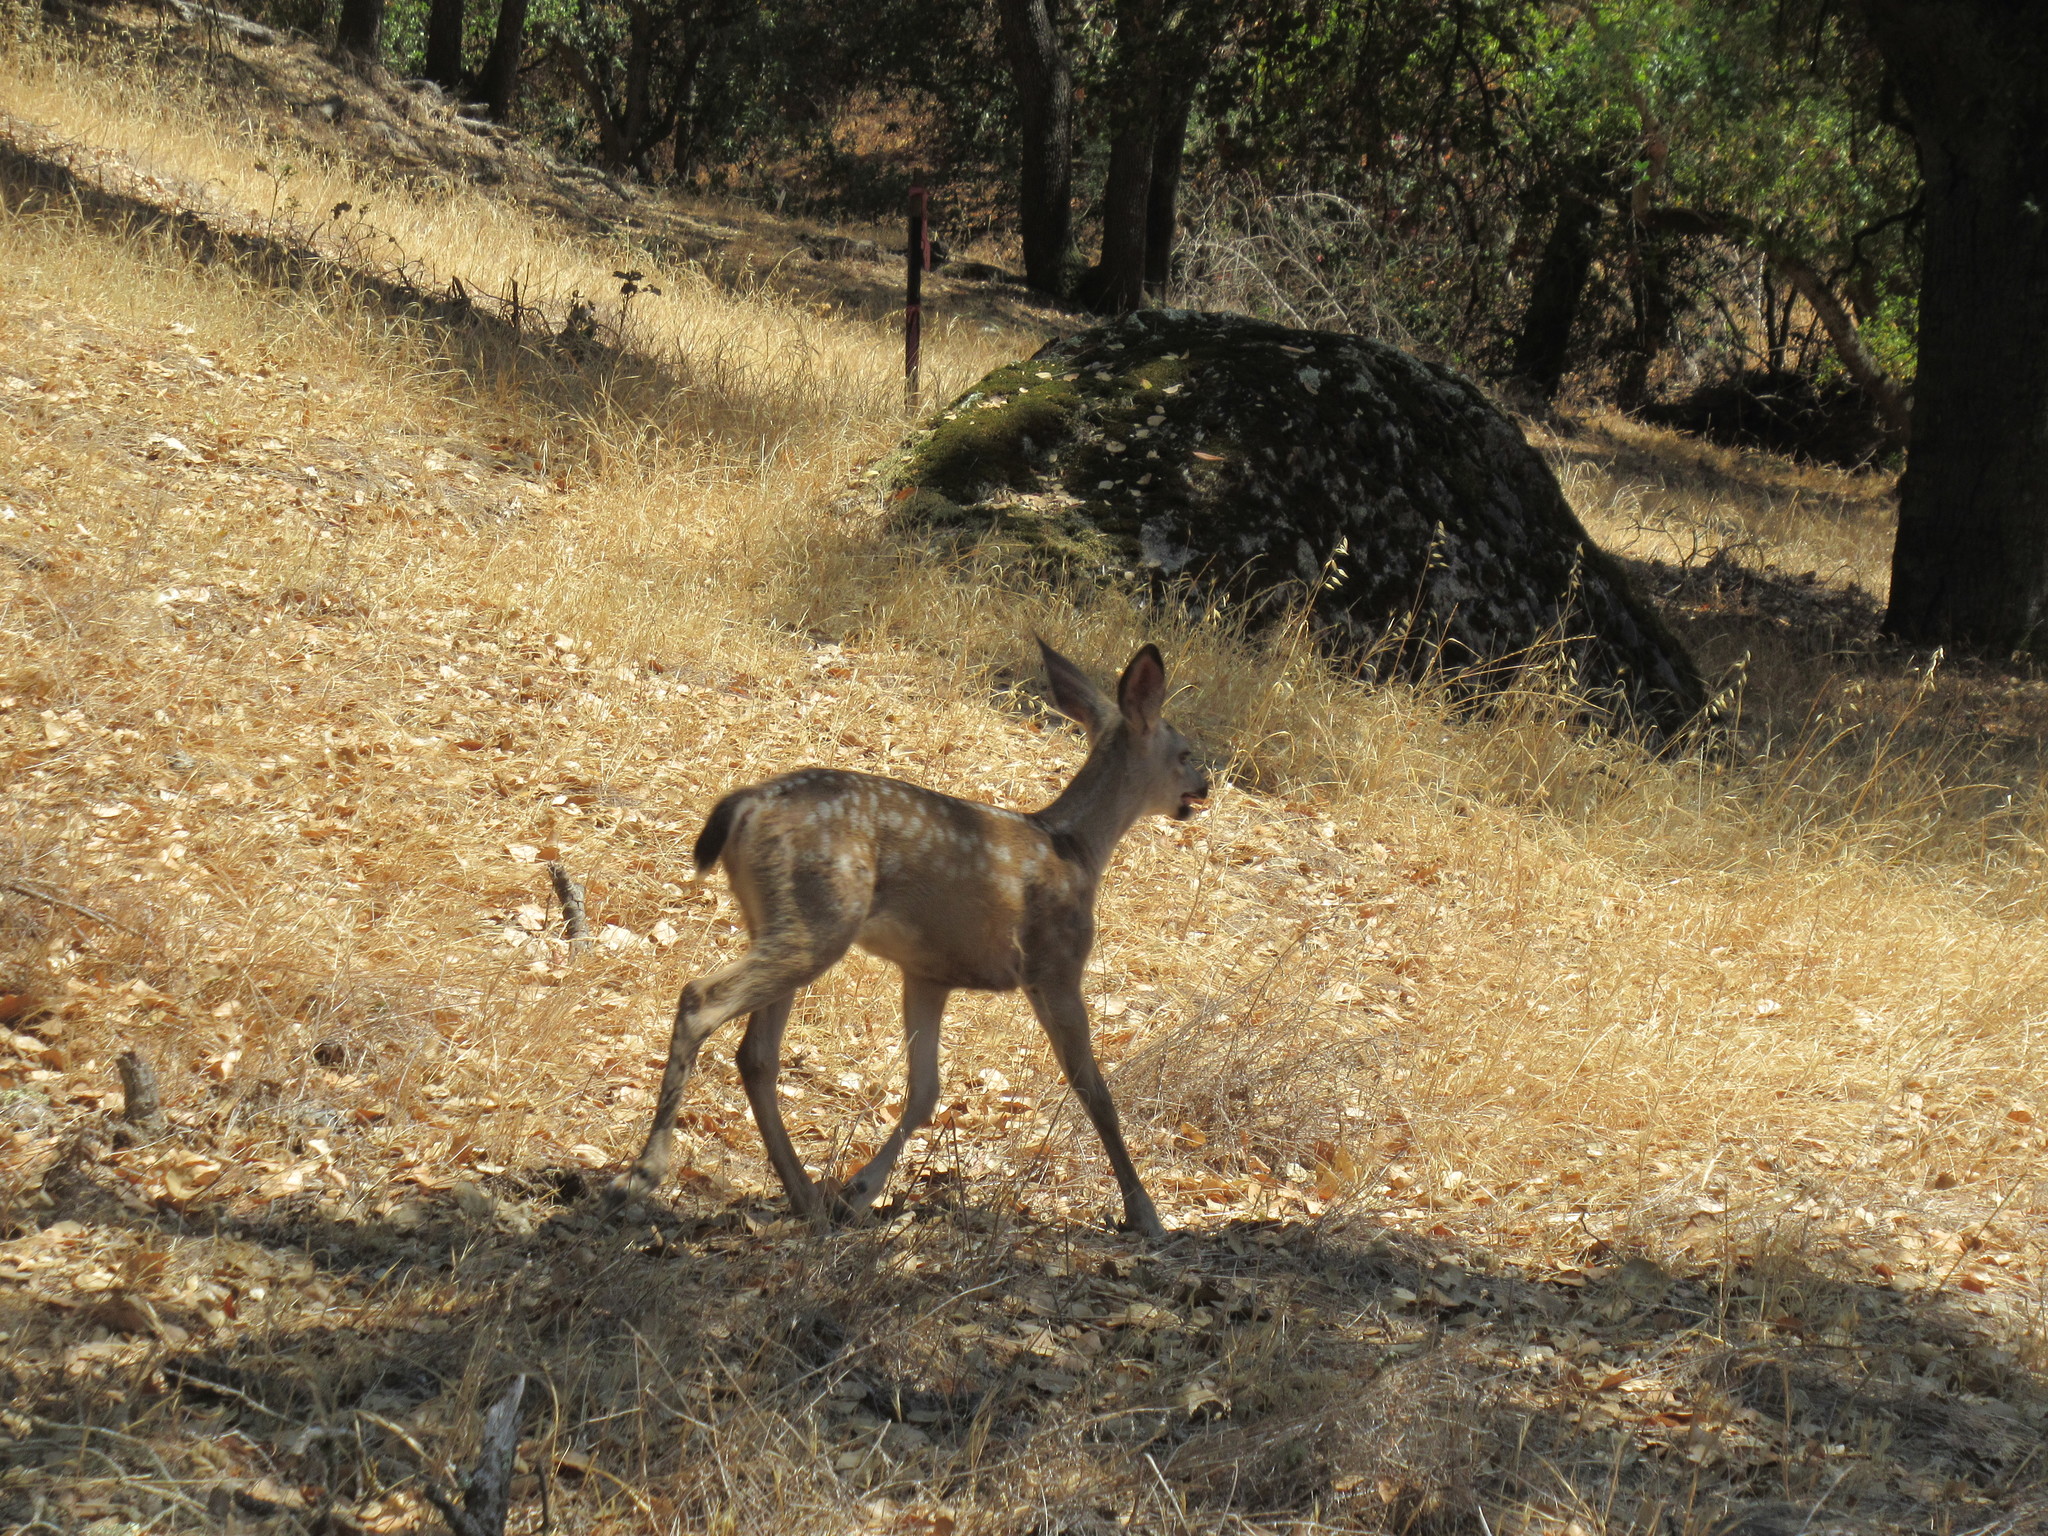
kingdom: Animalia
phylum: Chordata
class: Mammalia
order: Artiodactyla
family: Cervidae
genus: Odocoileus
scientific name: Odocoileus hemionus
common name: Mule deer
